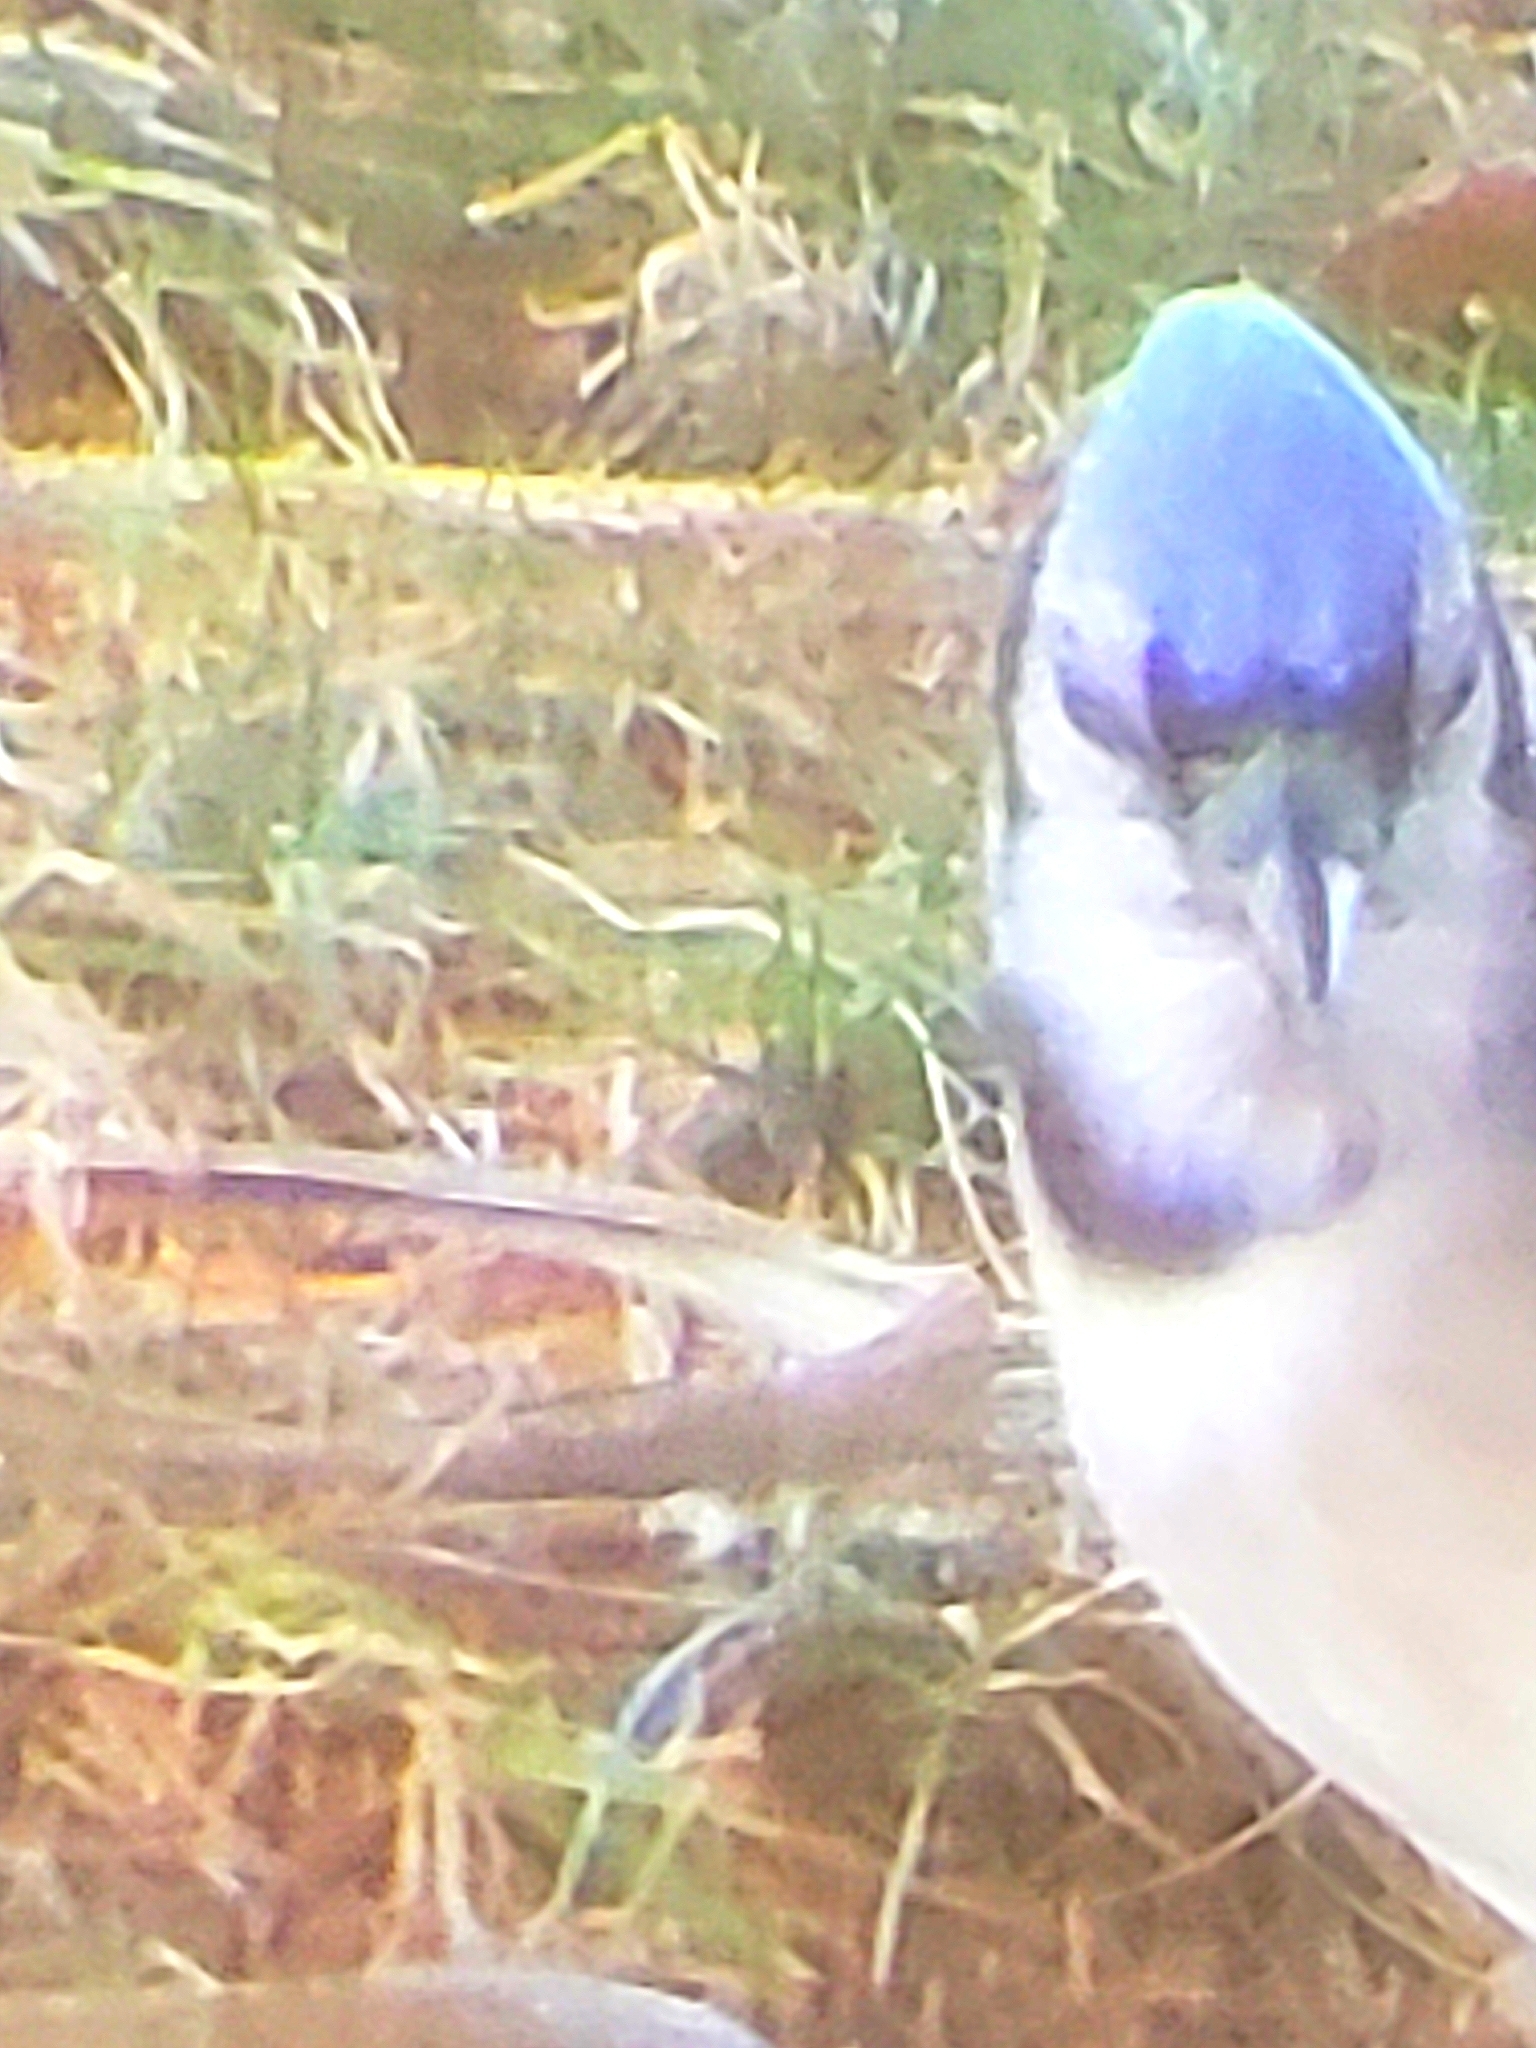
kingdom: Animalia
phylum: Chordata
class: Aves
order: Passeriformes
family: Corvidae
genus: Cyanocitta
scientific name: Cyanocitta cristata
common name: Blue jay
